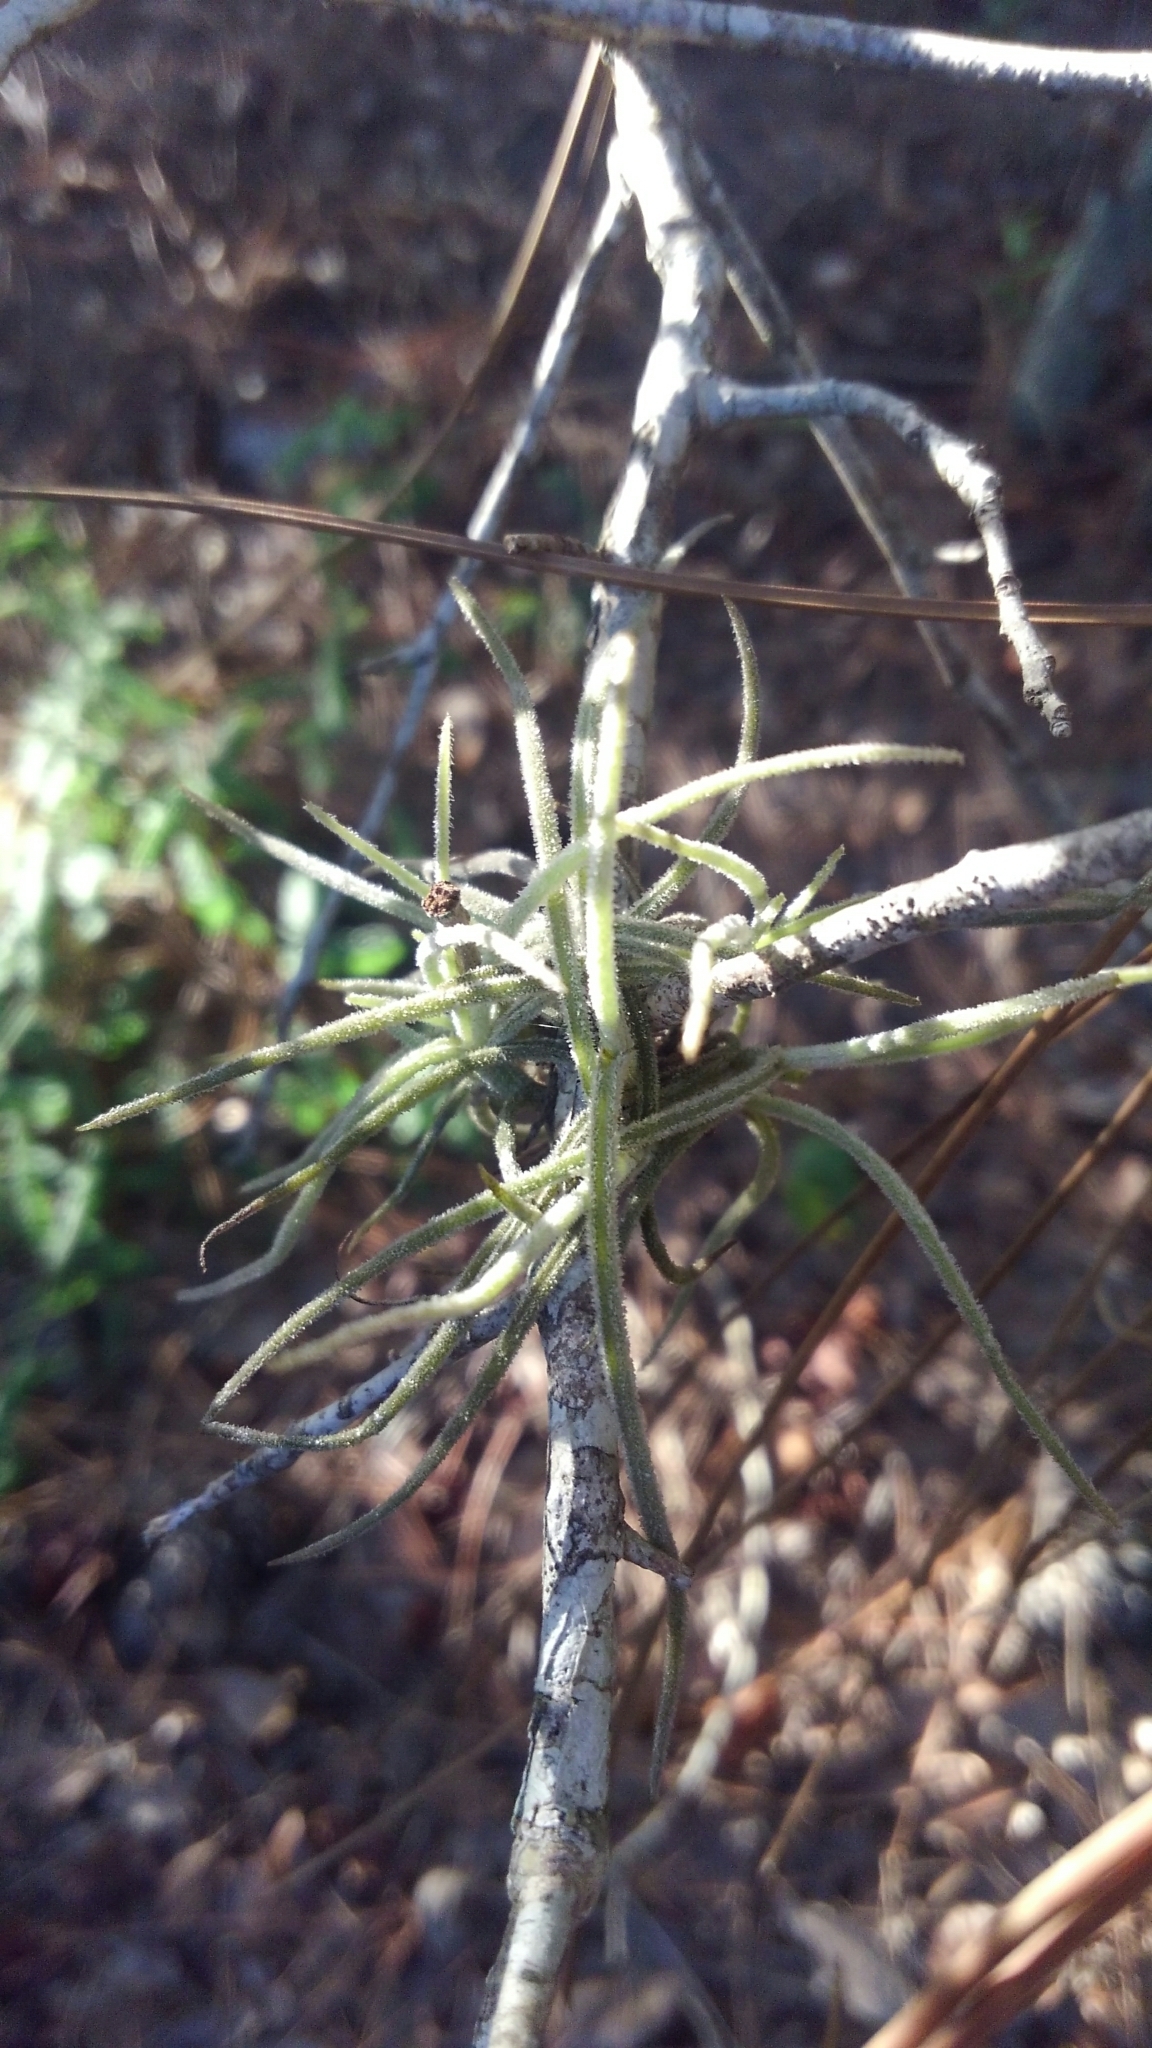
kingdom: Plantae
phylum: Tracheophyta
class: Liliopsida
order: Poales
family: Bromeliaceae
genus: Tillandsia
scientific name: Tillandsia recurvata
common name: Small ballmoss
